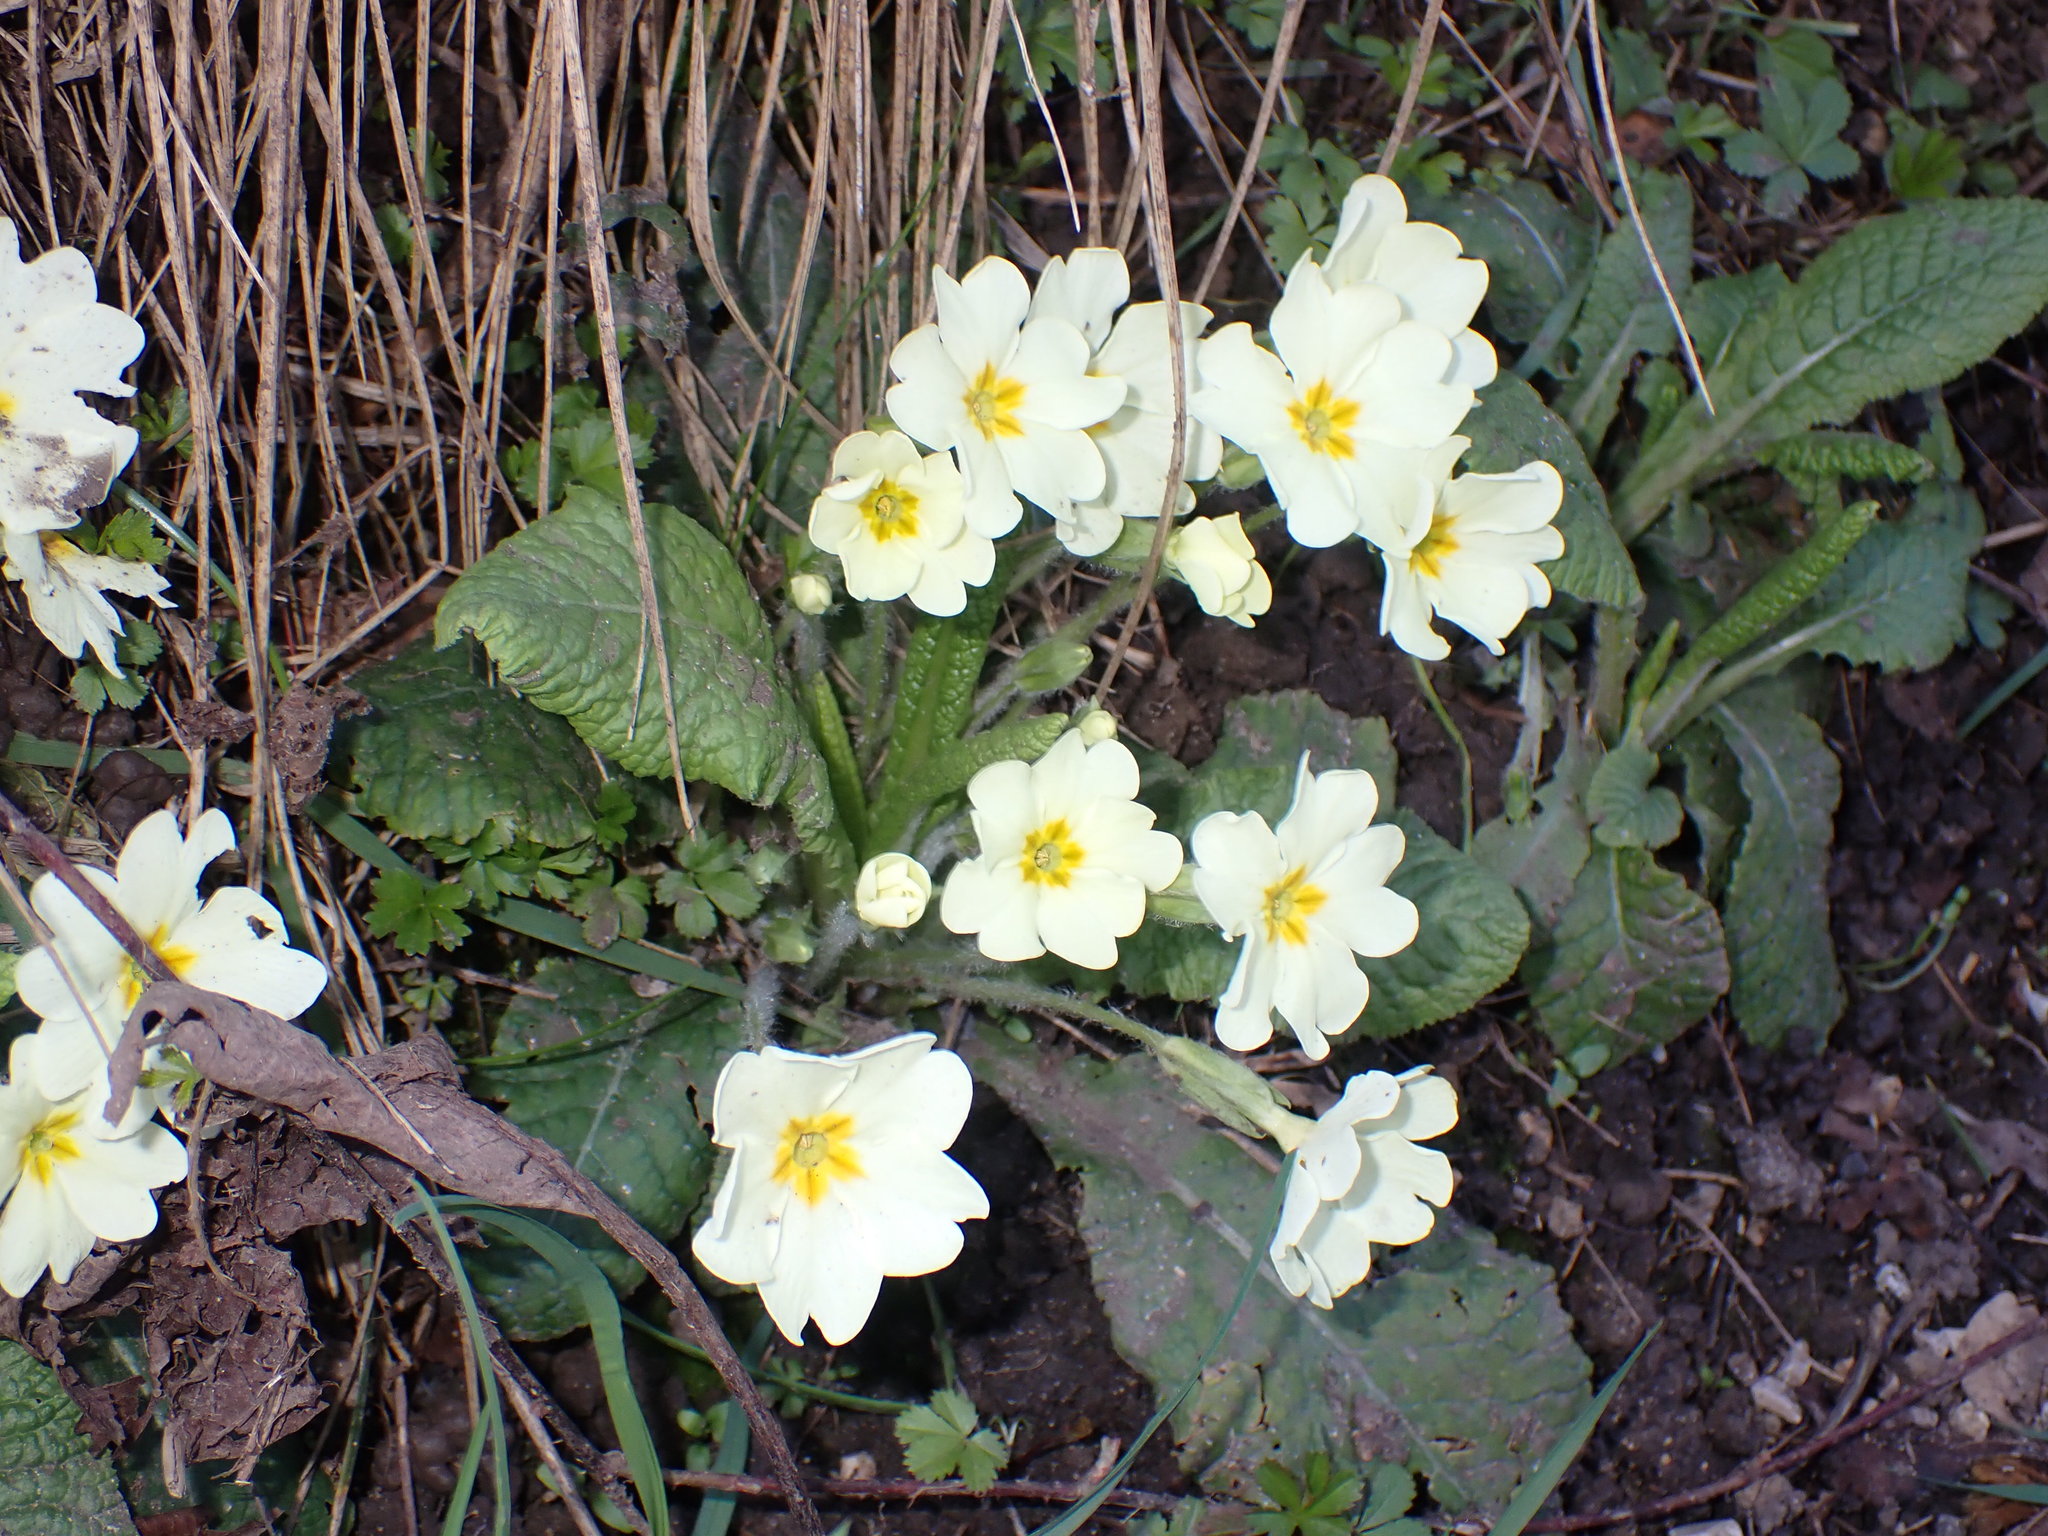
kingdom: Plantae
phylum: Tracheophyta
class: Magnoliopsida
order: Ericales
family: Primulaceae
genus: Primula
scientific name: Primula vulgaris
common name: Primrose
